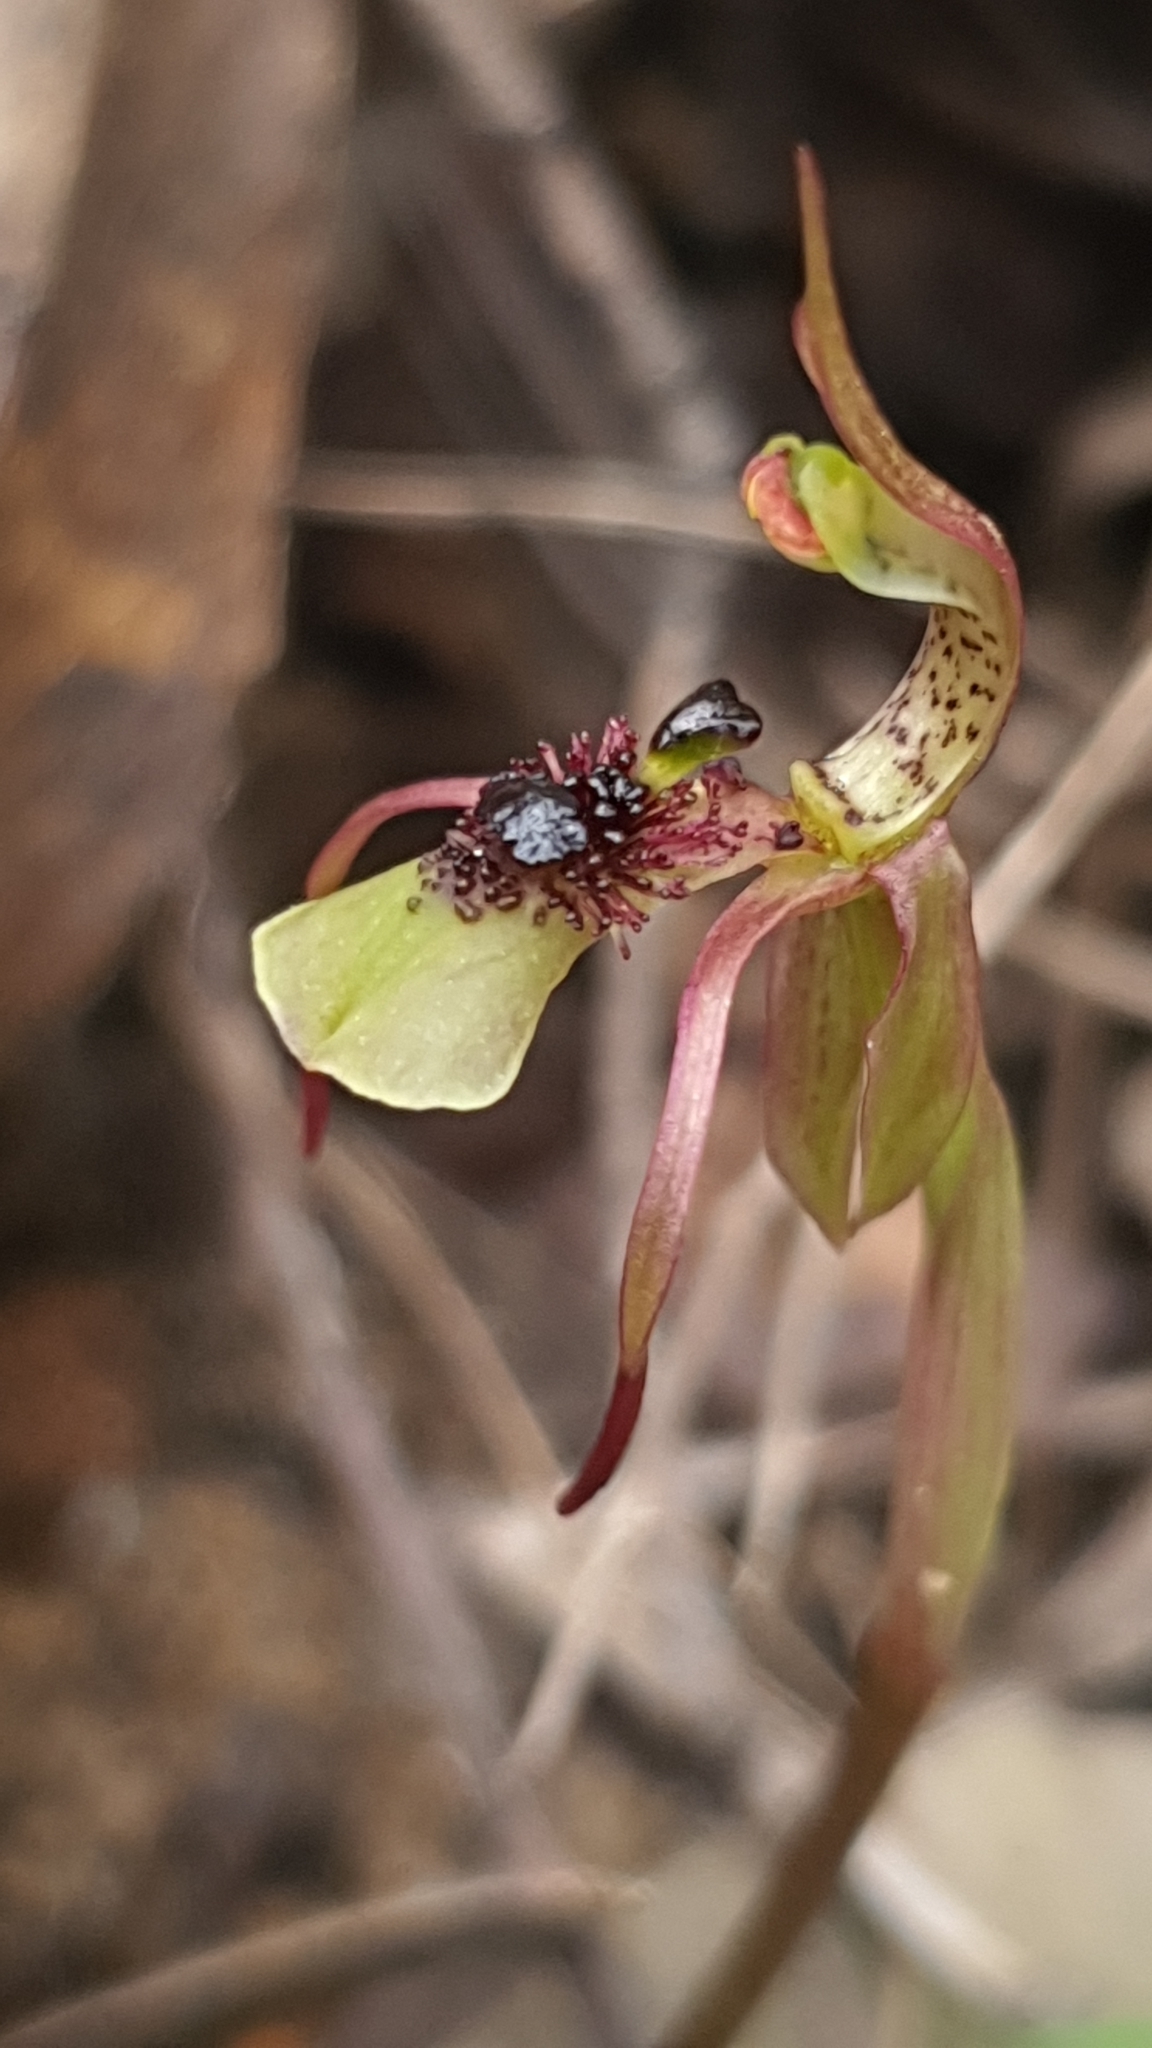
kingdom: Plantae
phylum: Tracheophyta
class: Liliopsida
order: Asparagales
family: Orchidaceae
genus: Chiloglottis
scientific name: Chiloglottis seminuda
